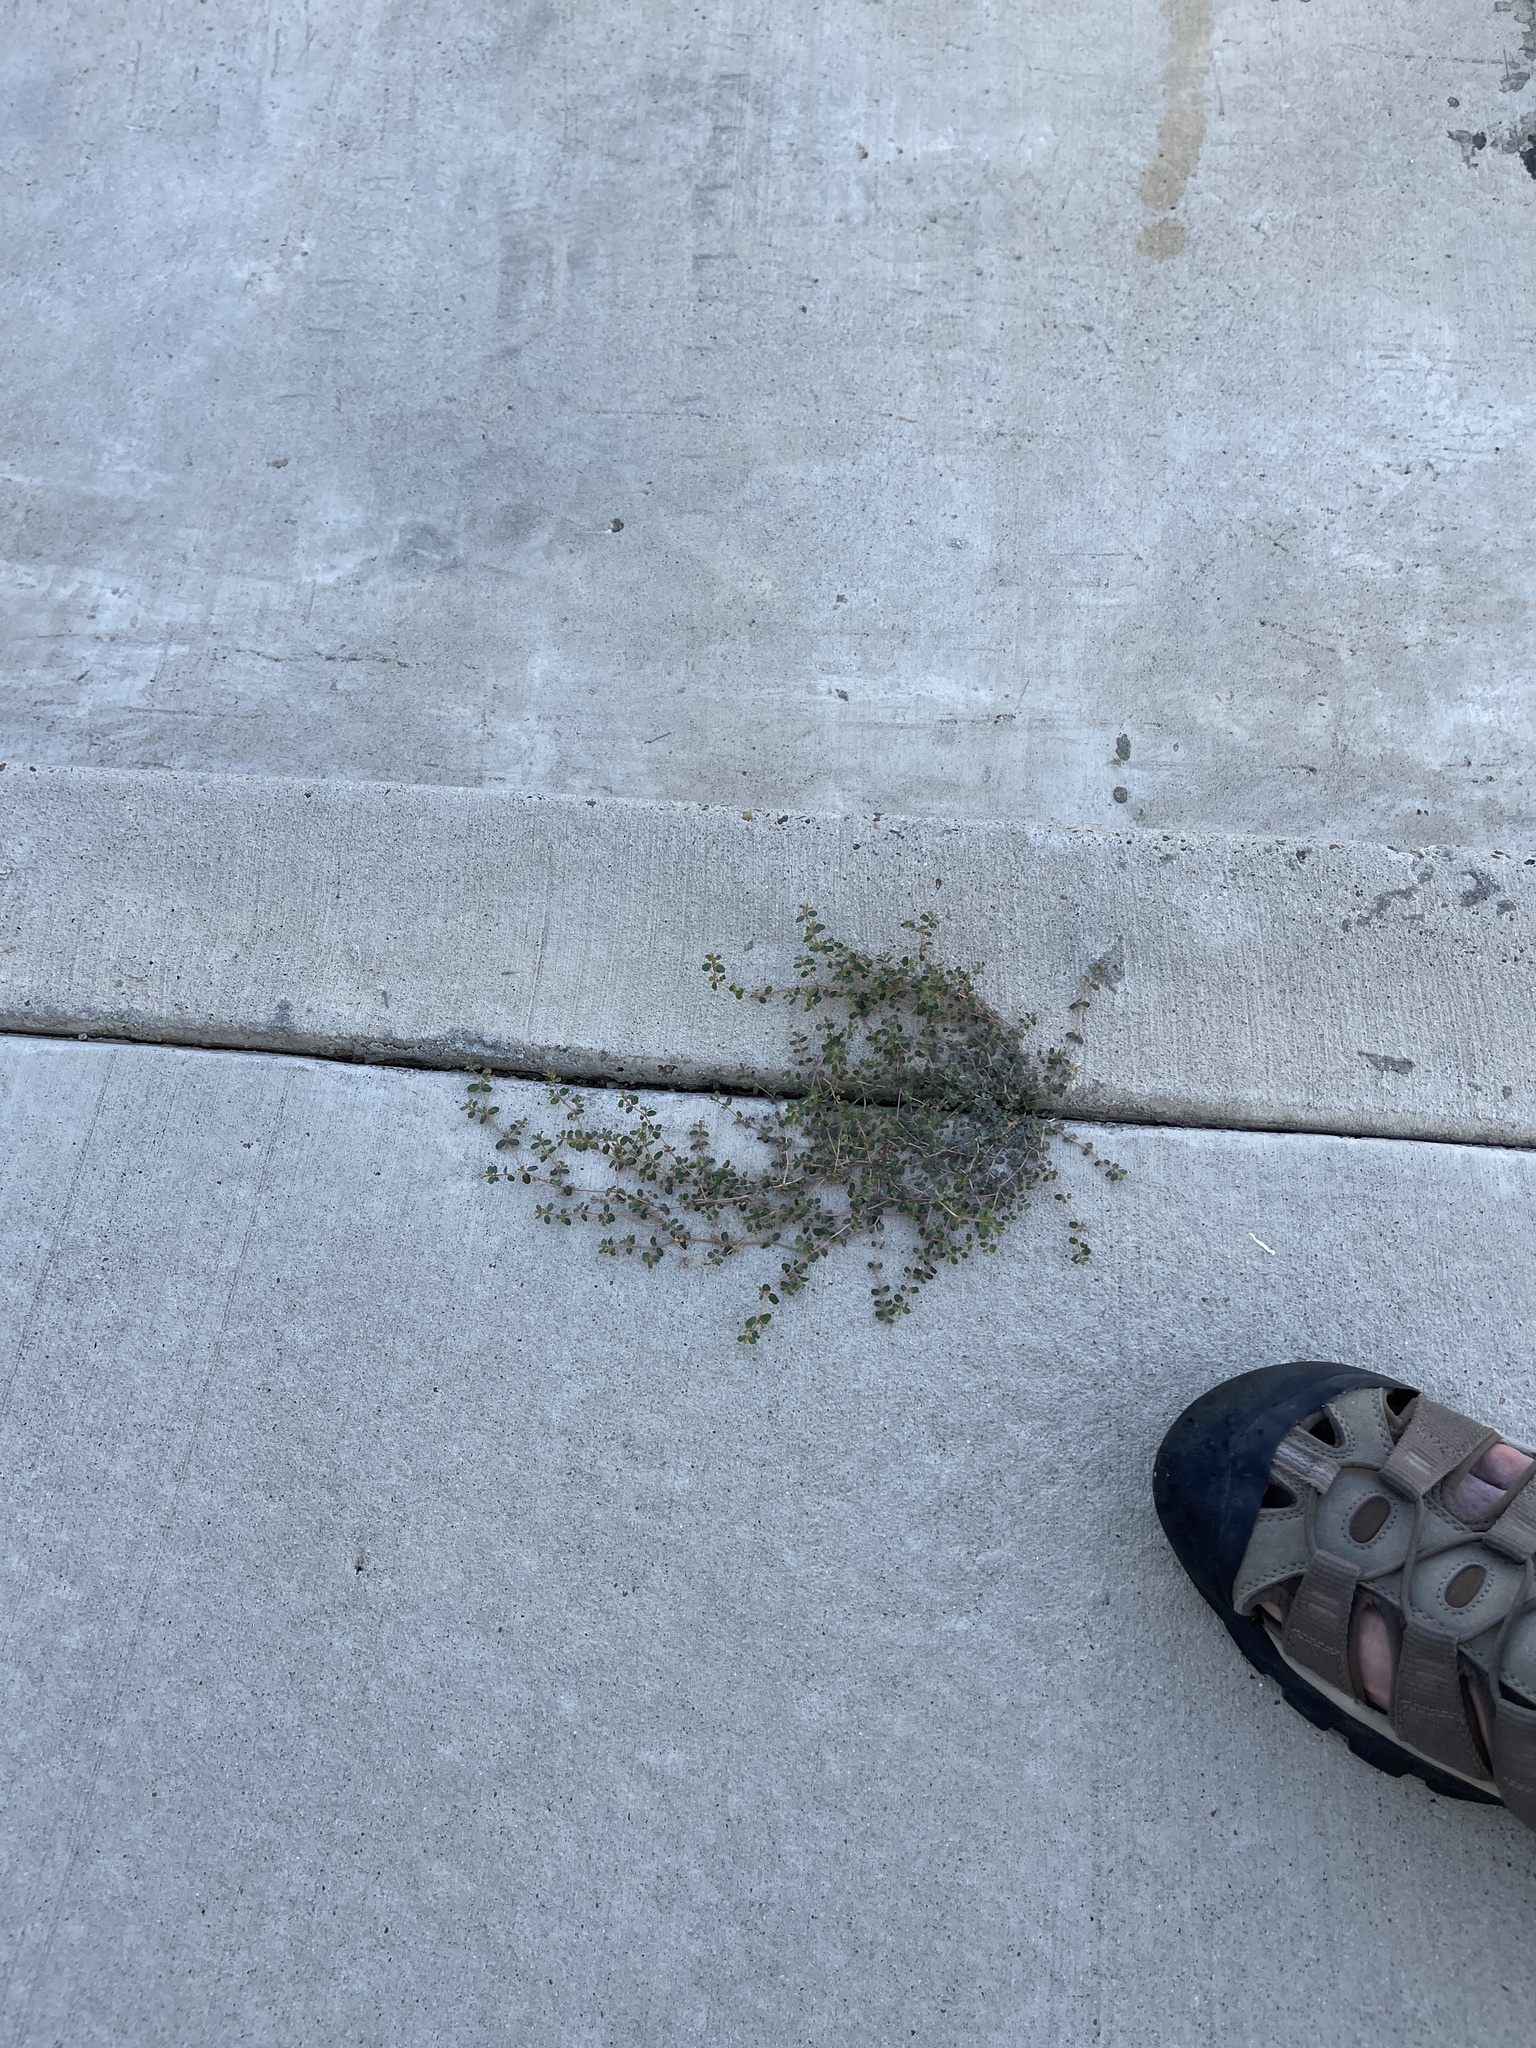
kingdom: Plantae
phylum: Tracheophyta
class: Magnoliopsida
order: Malpighiales
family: Euphorbiaceae
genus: Euphorbia
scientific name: Euphorbia serpens
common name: Matted sandmat
